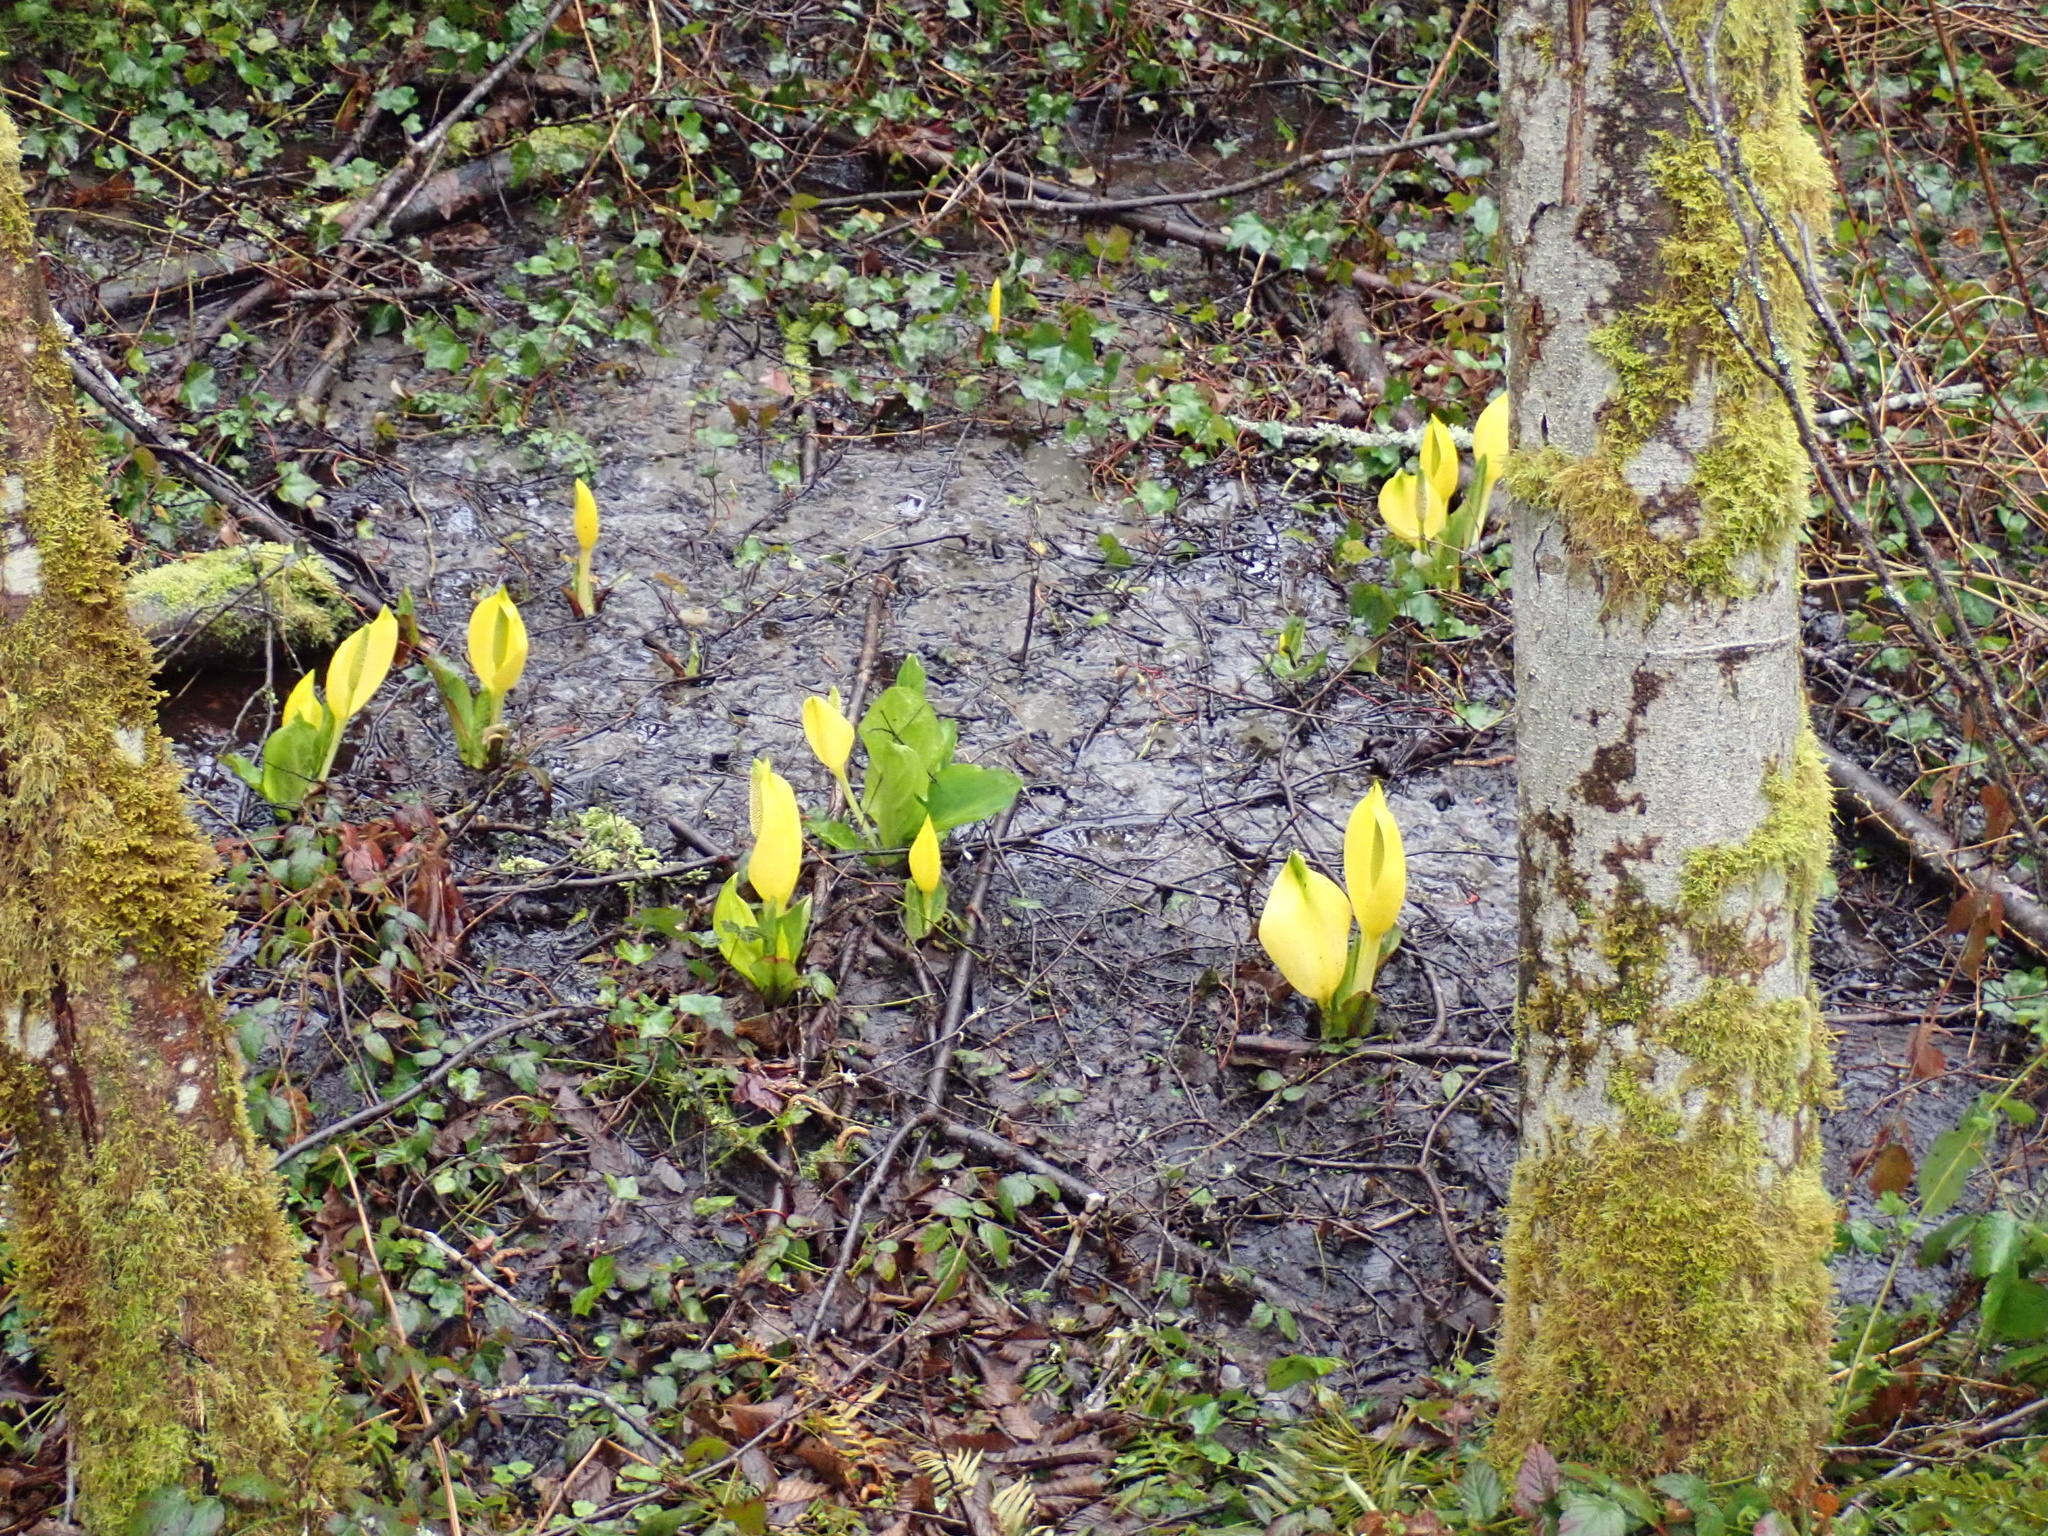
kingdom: Plantae
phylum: Tracheophyta
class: Liliopsida
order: Alismatales
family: Araceae
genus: Lysichiton
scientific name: Lysichiton americanus
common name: American skunk cabbage
